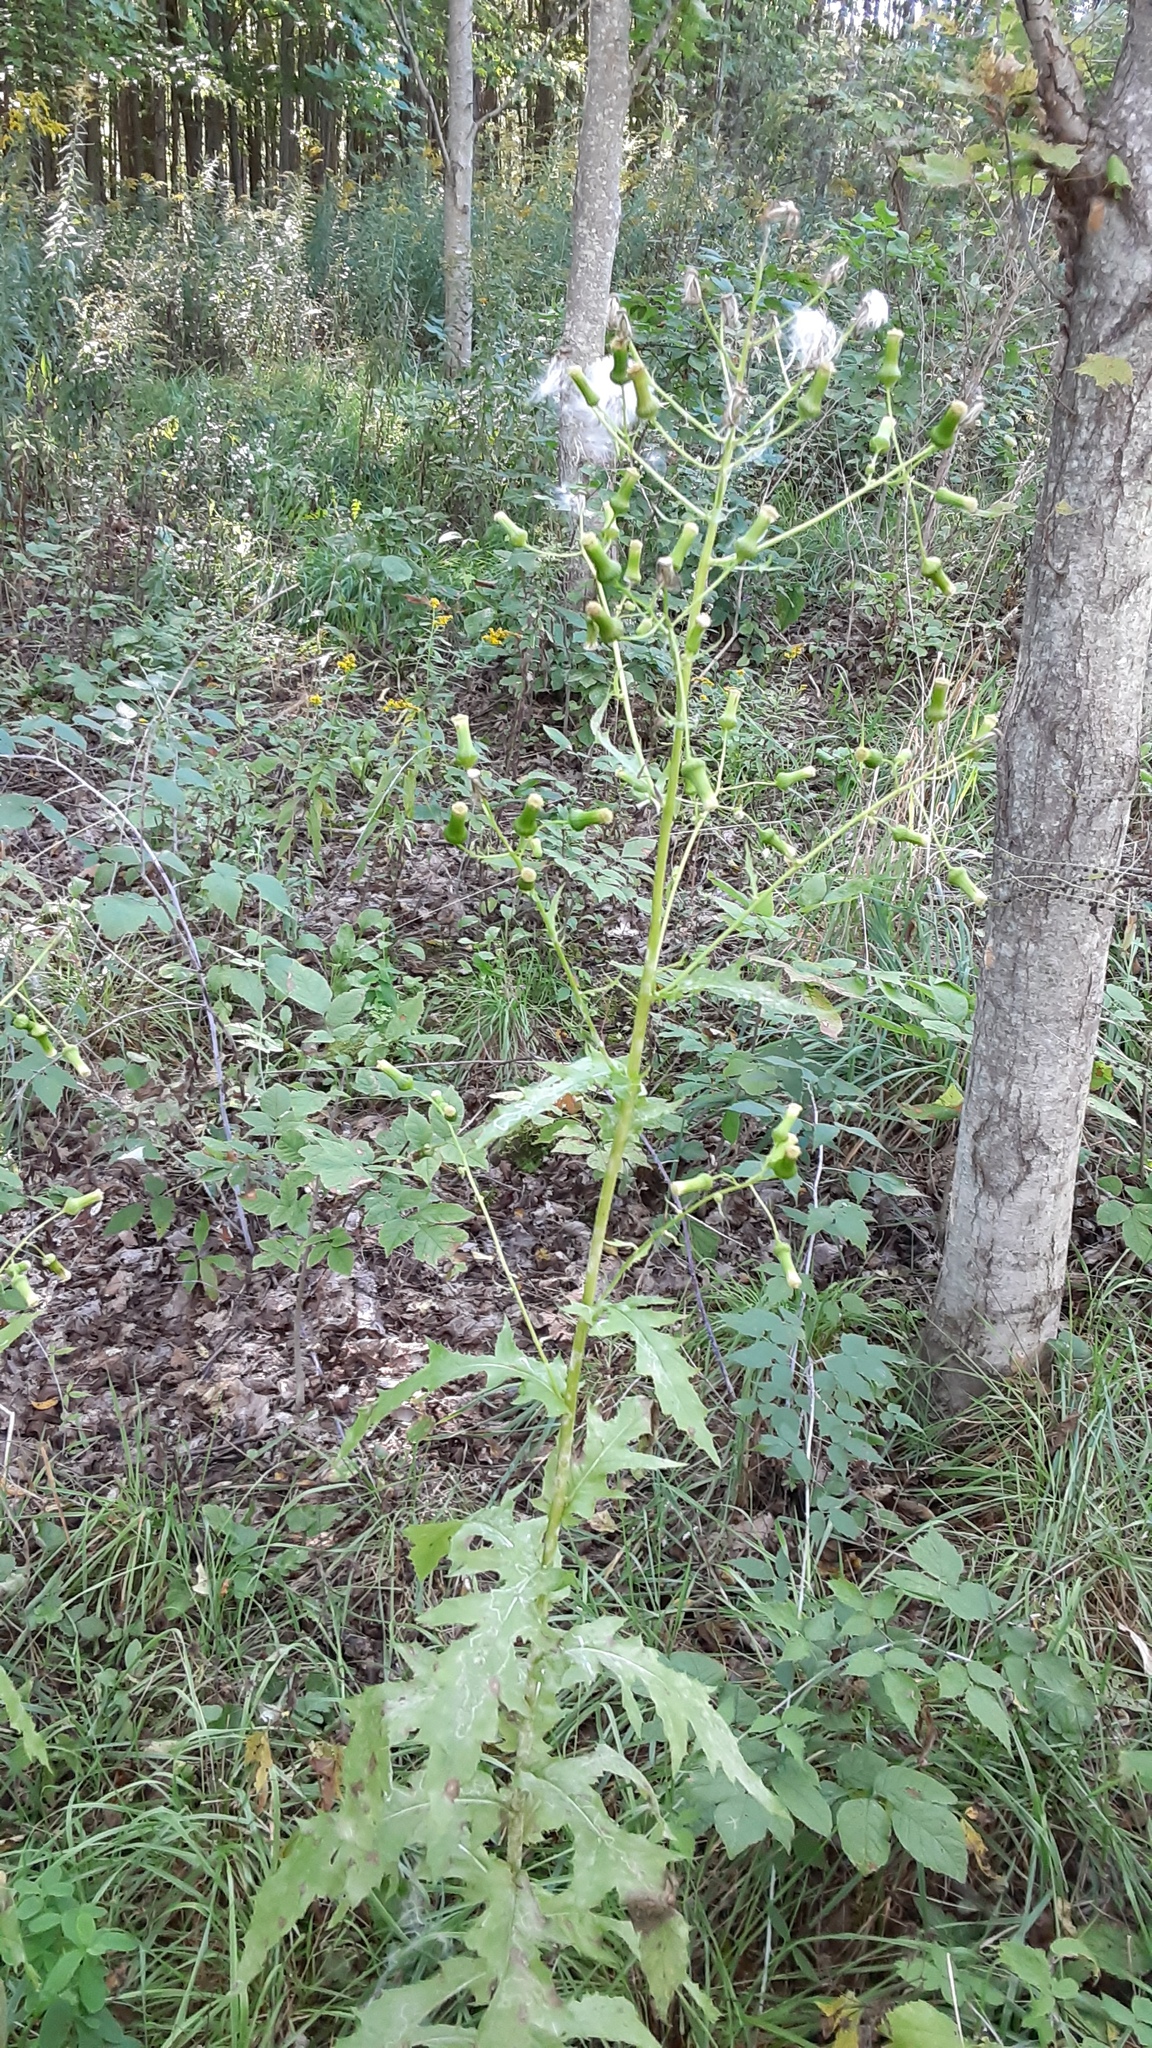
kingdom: Plantae
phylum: Tracheophyta
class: Magnoliopsida
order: Asterales
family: Asteraceae
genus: Erechtites
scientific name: Erechtites hieraciifolius
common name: American burnweed
